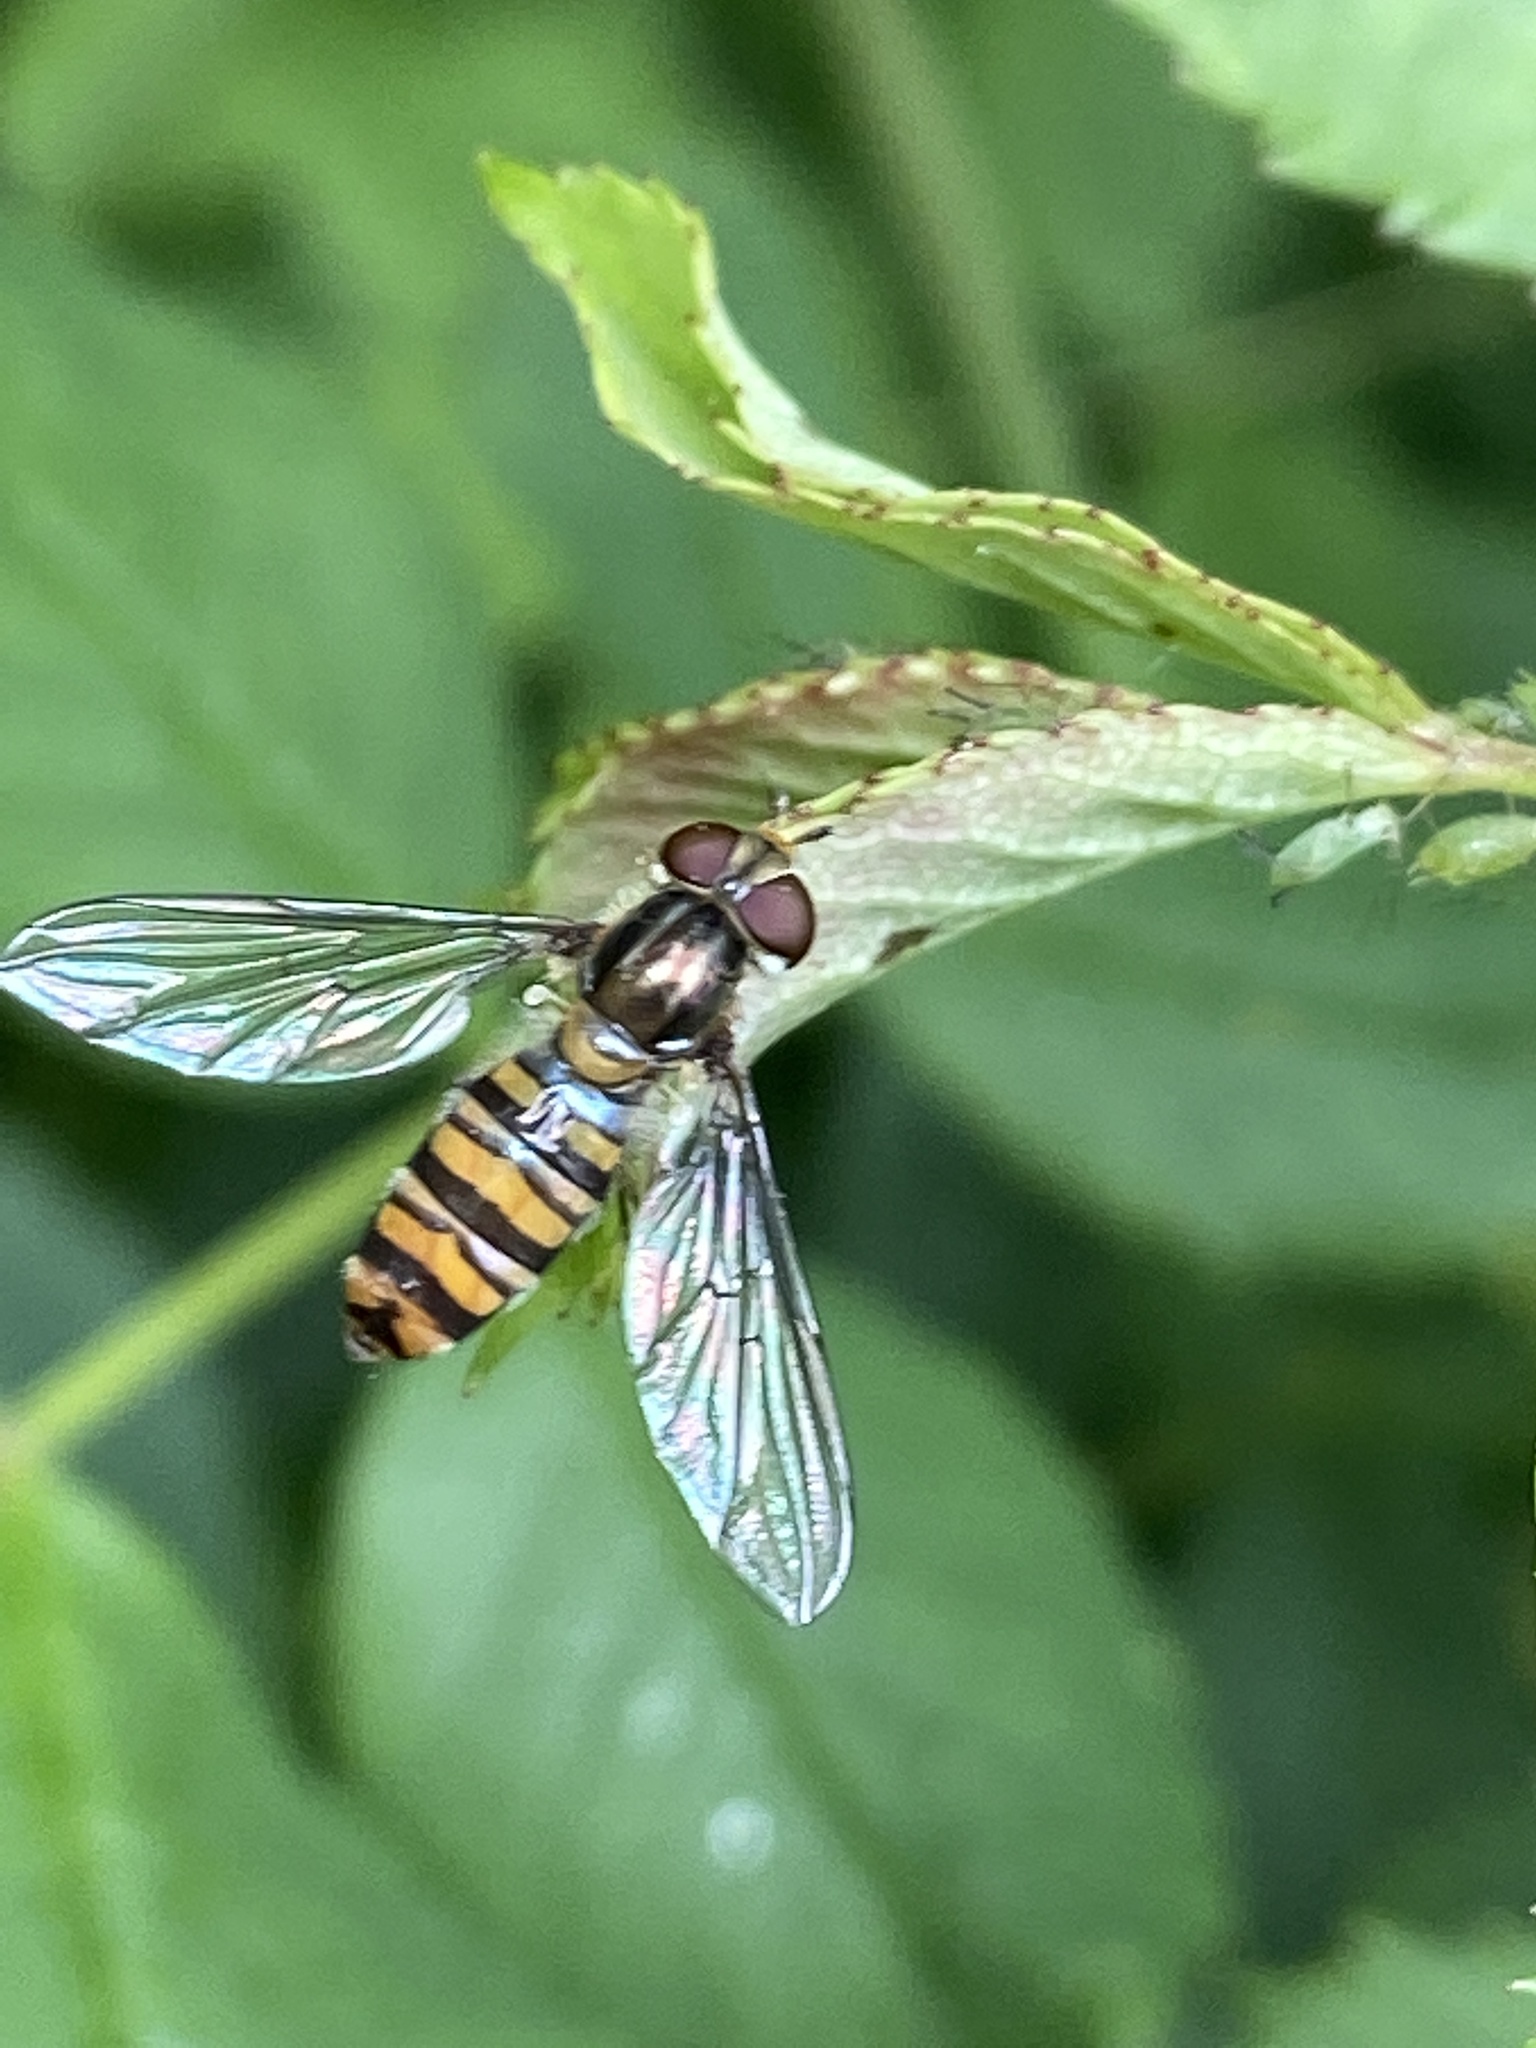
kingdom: Animalia
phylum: Arthropoda
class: Insecta
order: Diptera
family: Syrphidae
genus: Episyrphus
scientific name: Episyrphus balteatus
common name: Marmalade hoverfly
